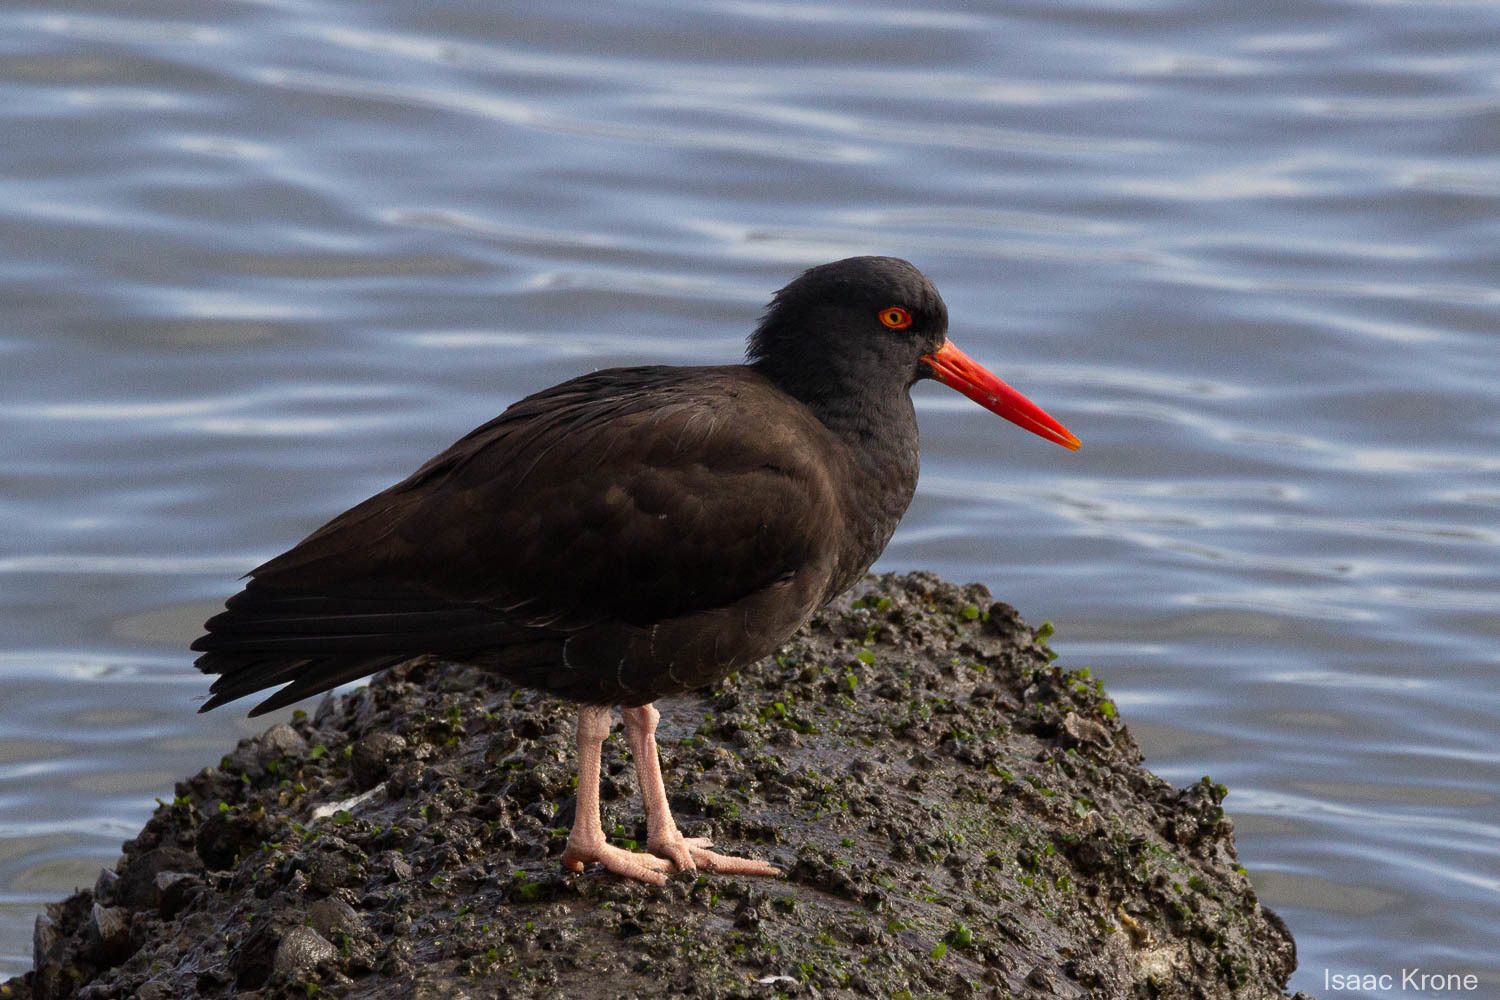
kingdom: Animalia
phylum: Chordata
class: Aves
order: Charadriiformes
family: Haematopodidae
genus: Haematopus
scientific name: Haematopus bachmani
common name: Black oystercatcher
